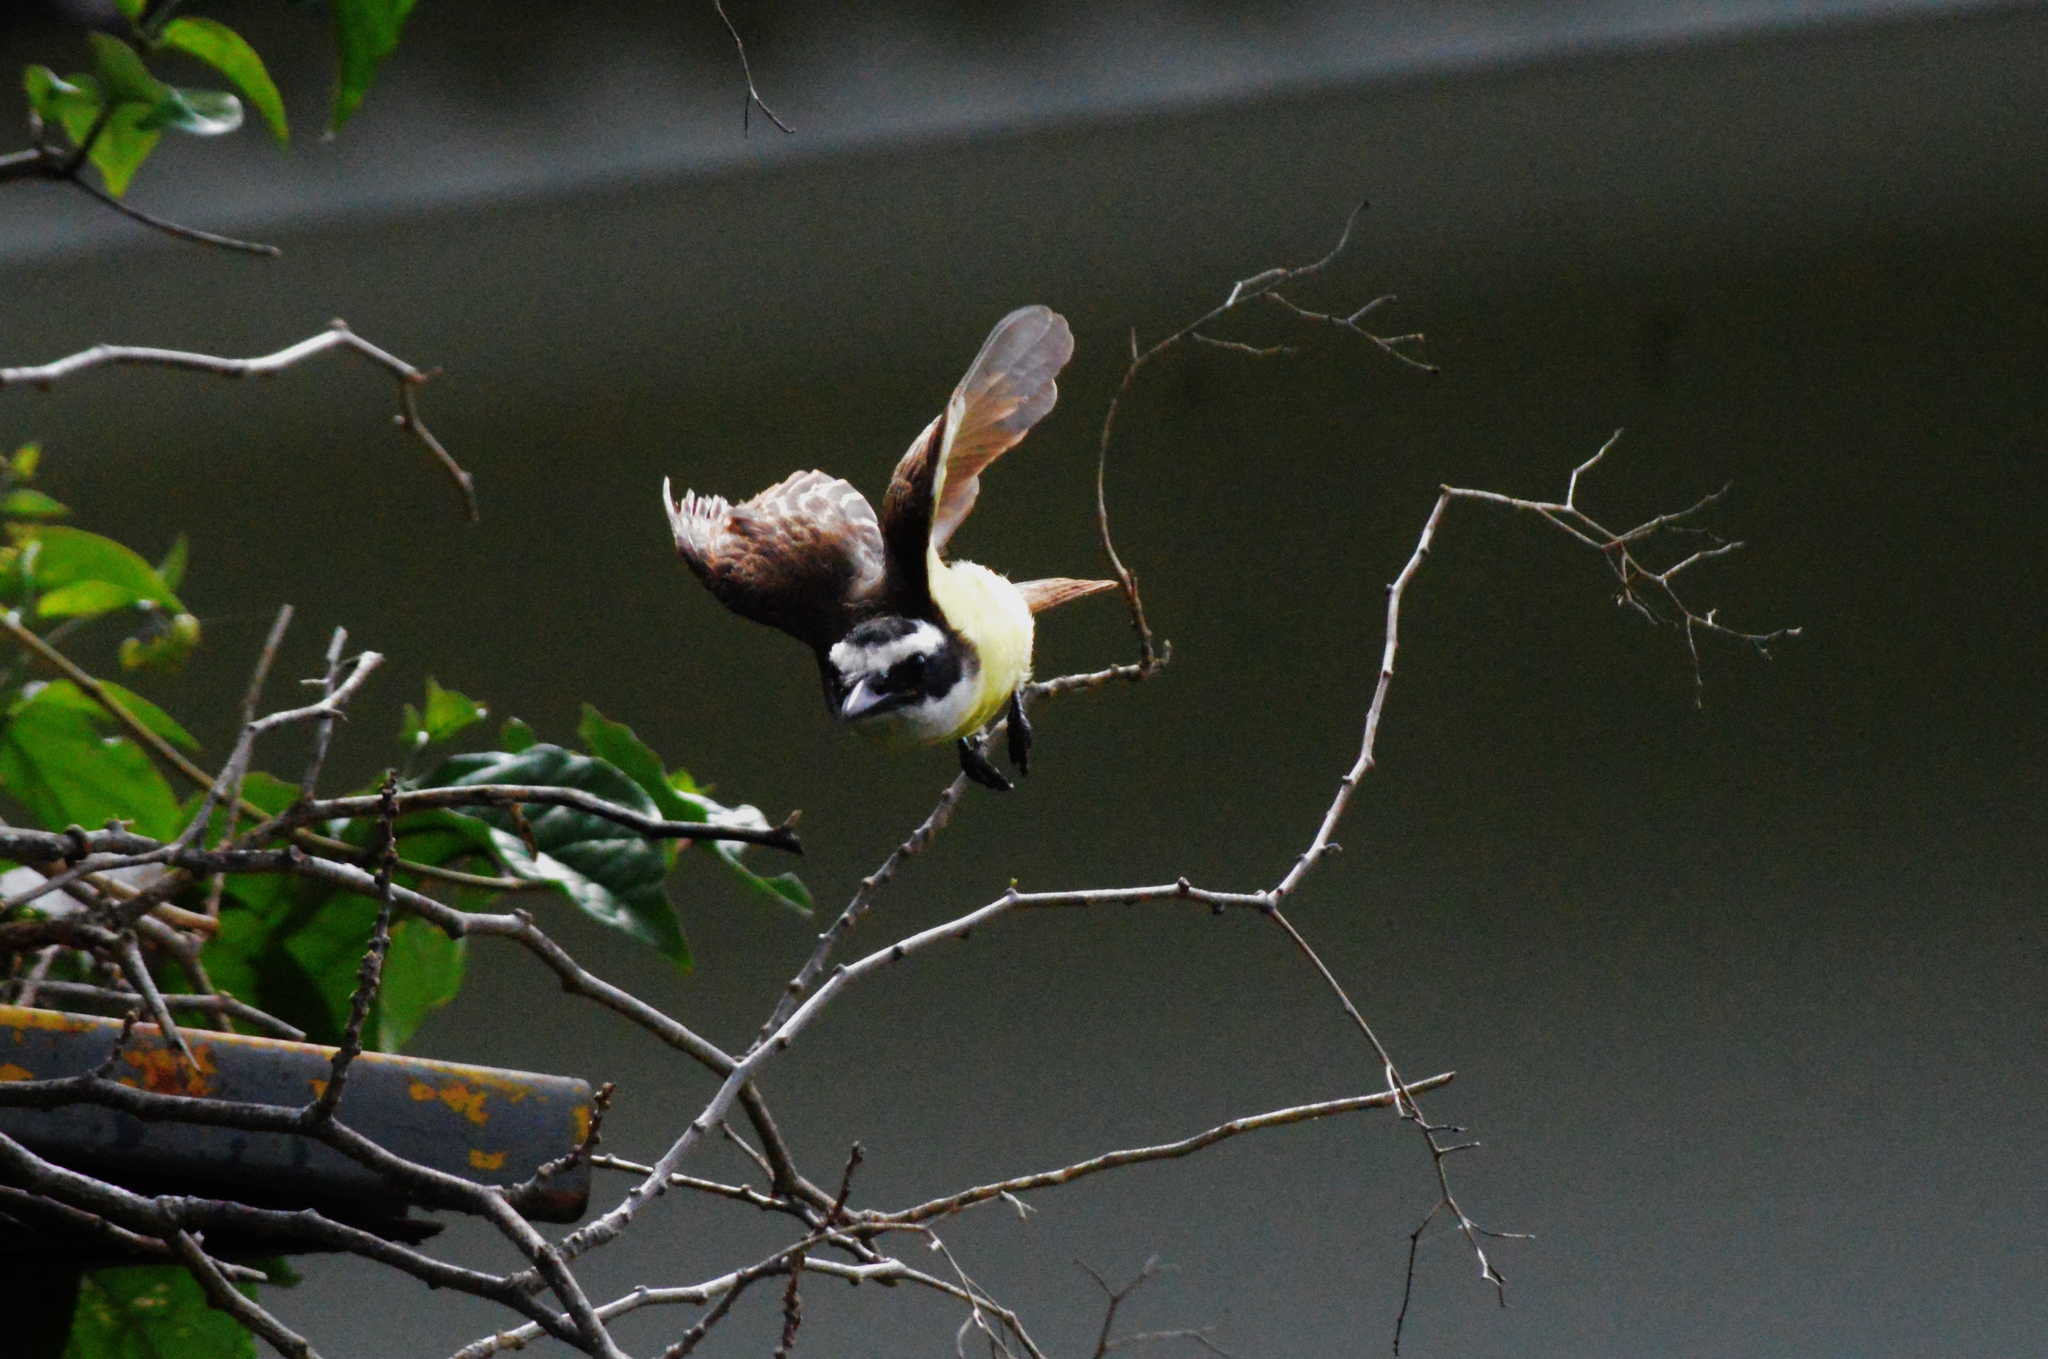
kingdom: Animalia
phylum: Chordata
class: Aves
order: Passeriformes
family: Tyrannidae
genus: Pitangus
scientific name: Pitangus sulphuratus
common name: Great kiskadee
